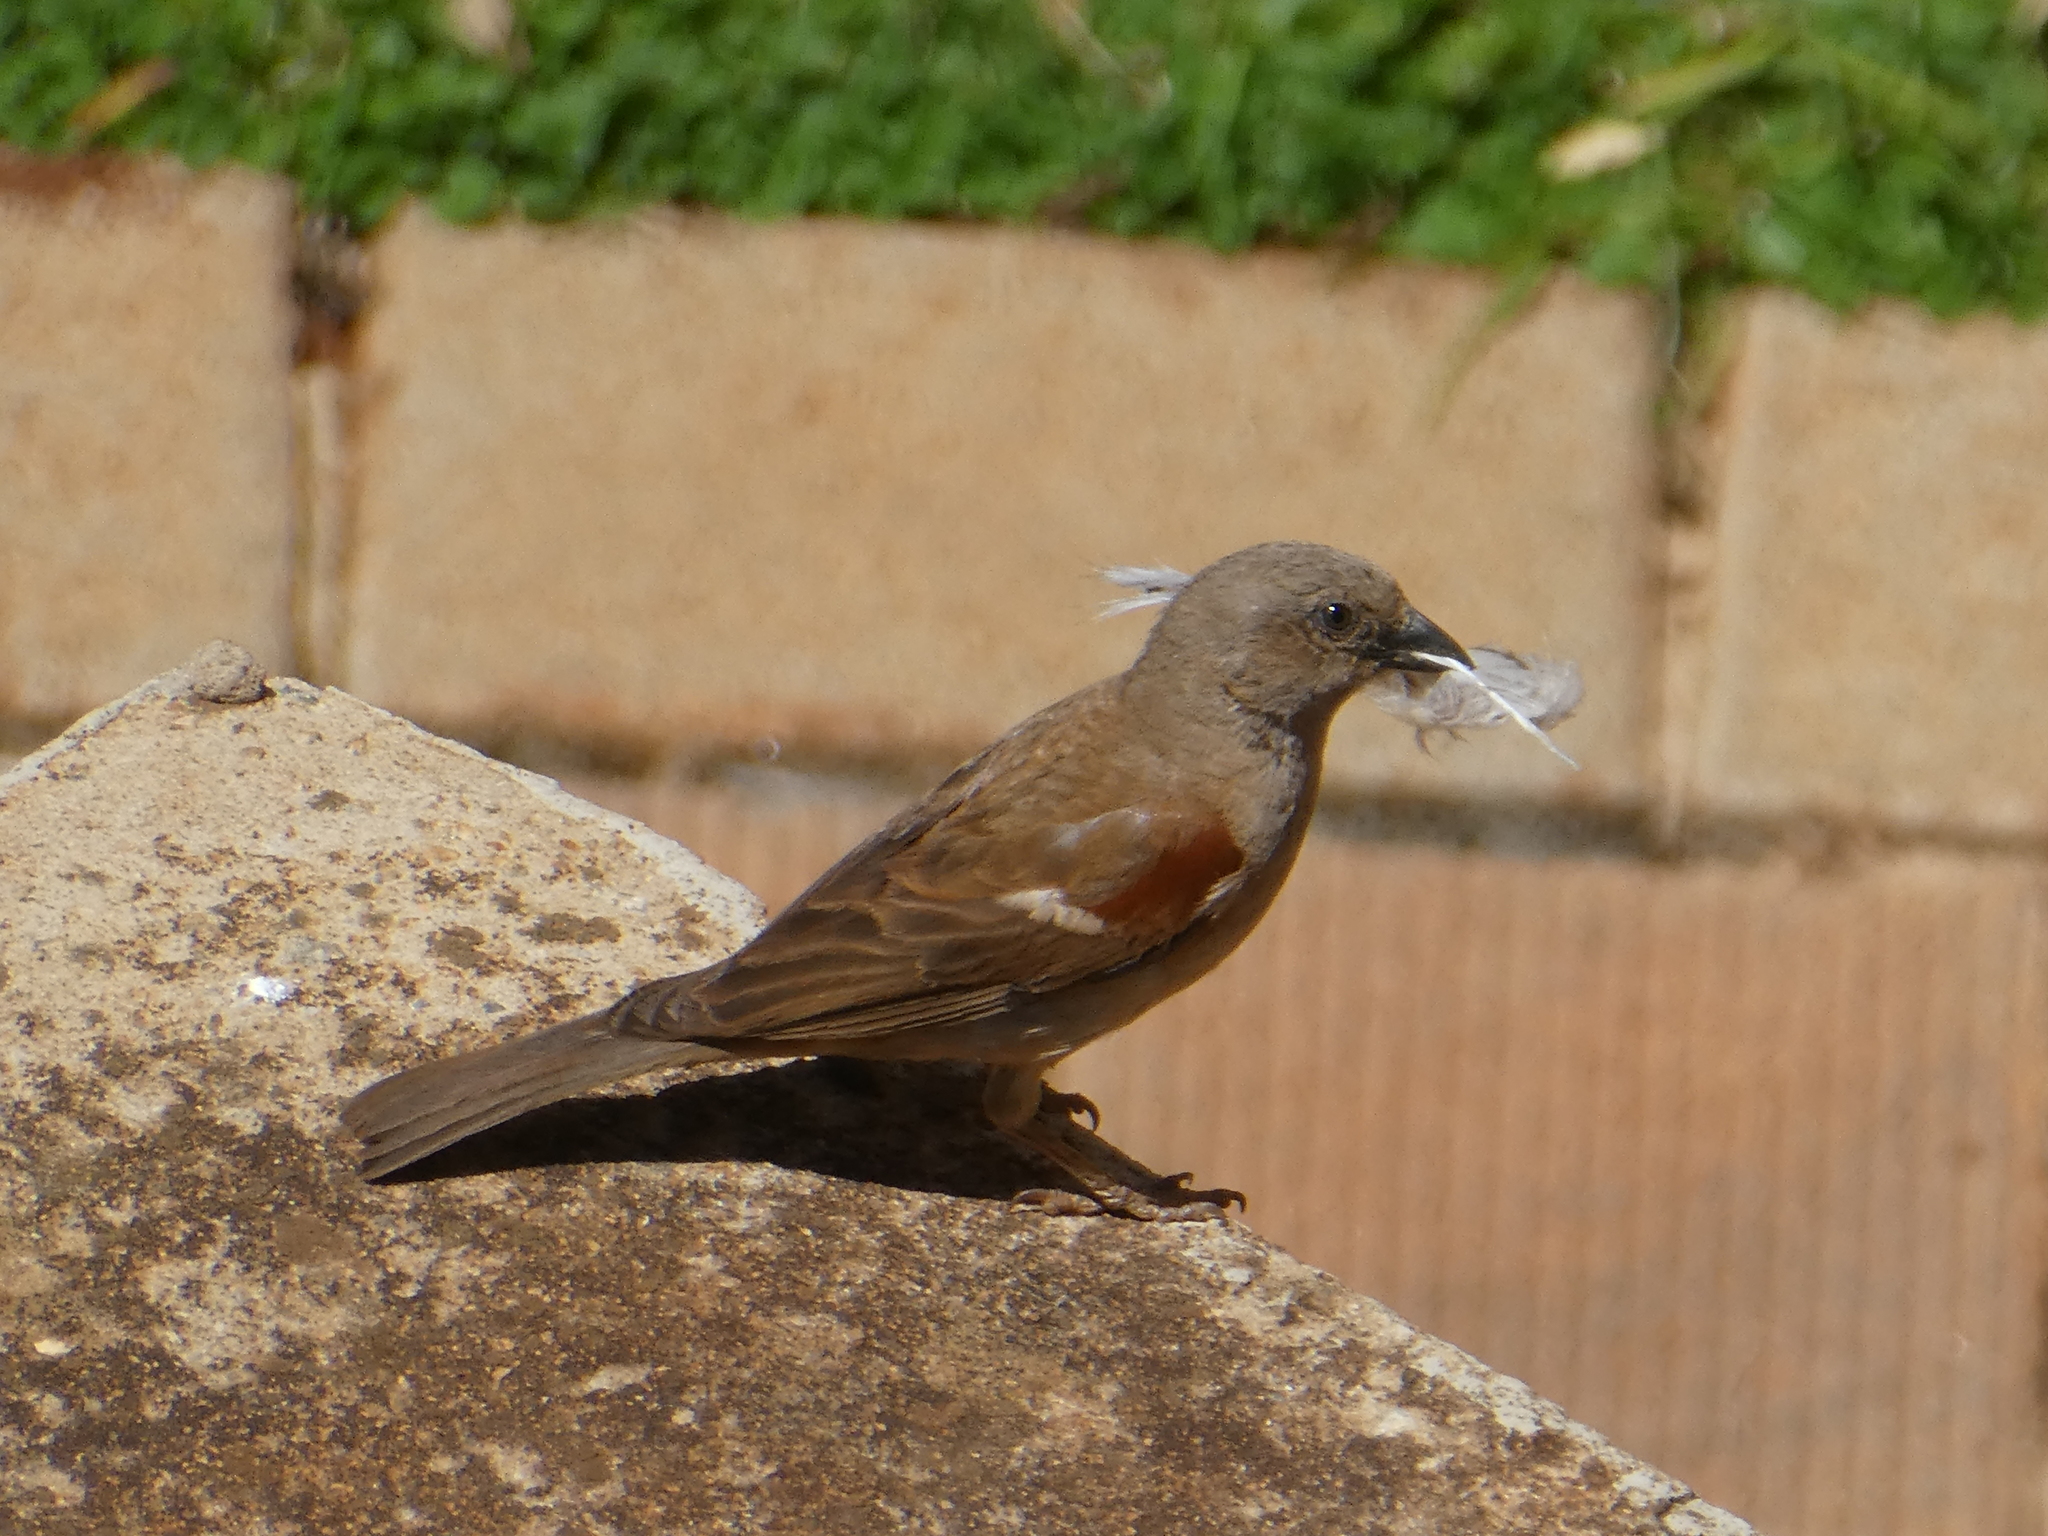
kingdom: Animalia
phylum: Chordata
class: Aves
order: Passeriformes
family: Passeridae
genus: Passer
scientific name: Passer diffusus
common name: Southern grey-headed sparrow
